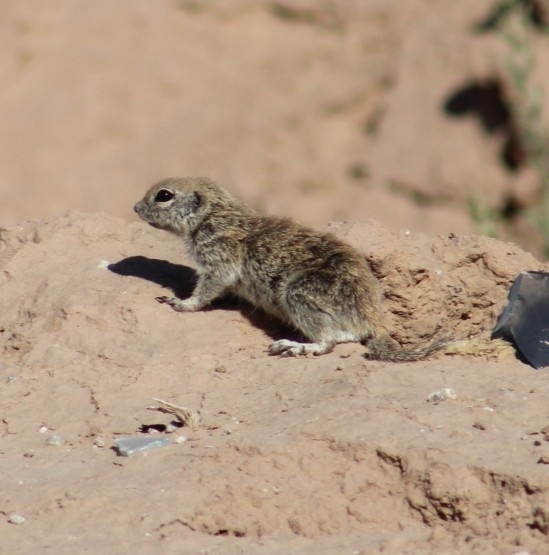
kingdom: Animalia
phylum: Chordata
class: Mammalia
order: Rodentia
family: Sciuridae
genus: Xerospermophilus
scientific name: Xerospermophilus tereticaudus
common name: Round-tailed ground squirrel
